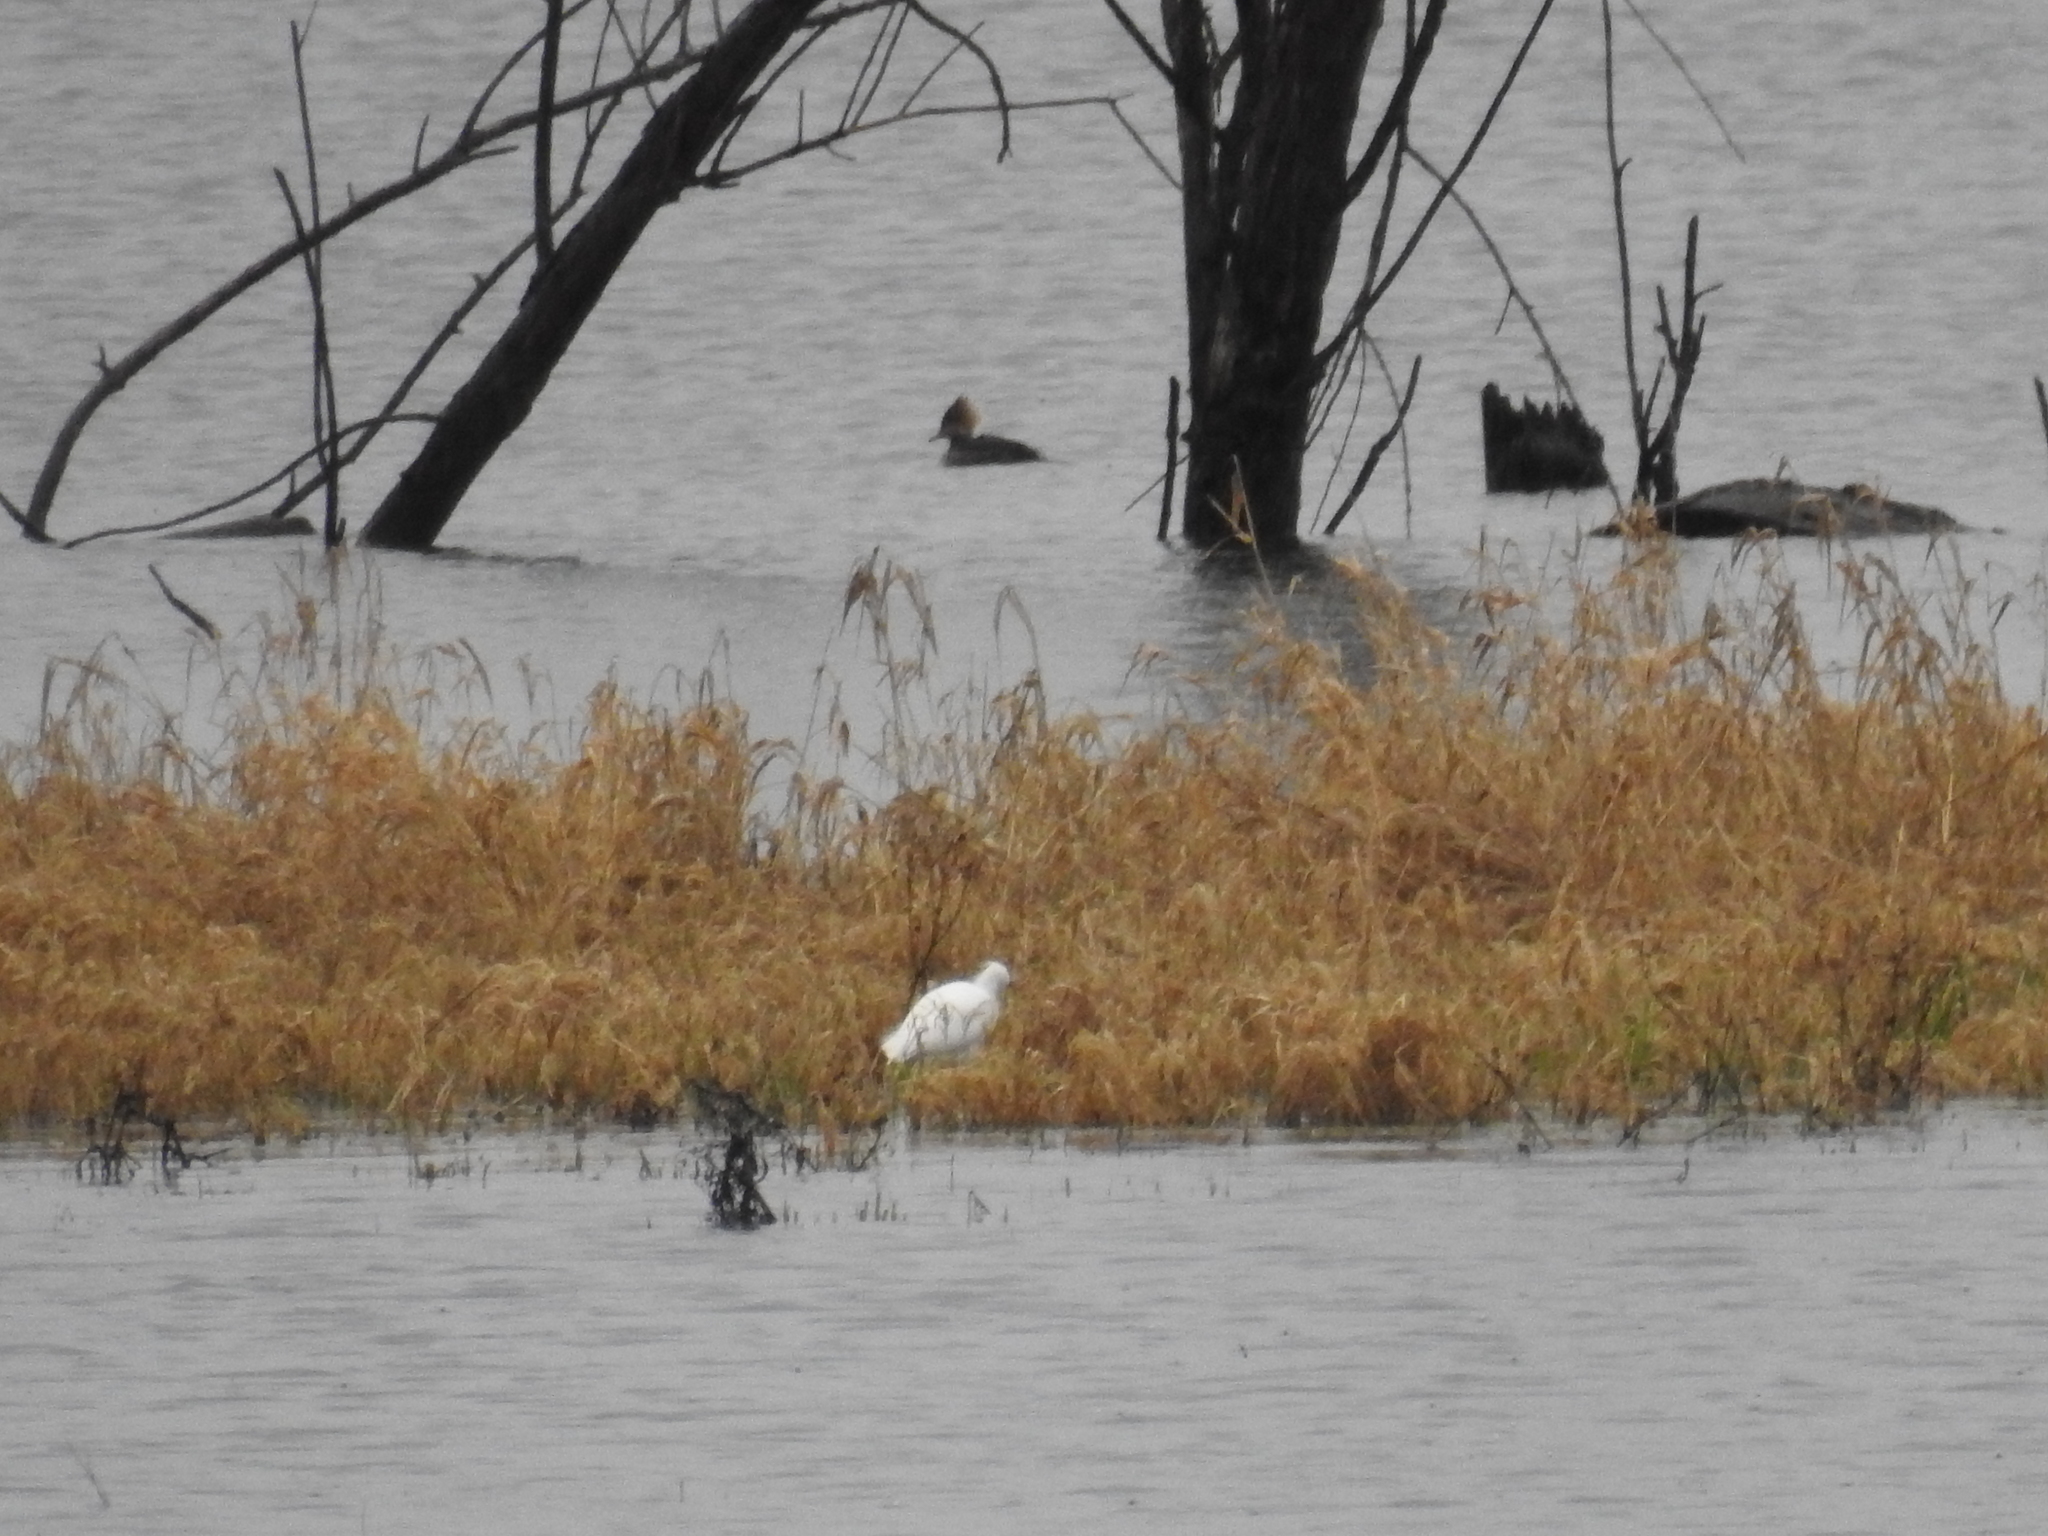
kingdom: Animalia
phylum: Chordata
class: Aves
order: Anseriformes
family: Anatidae
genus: Lophodytes
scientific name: Lophodytes cucullatus
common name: Hooded merganser
